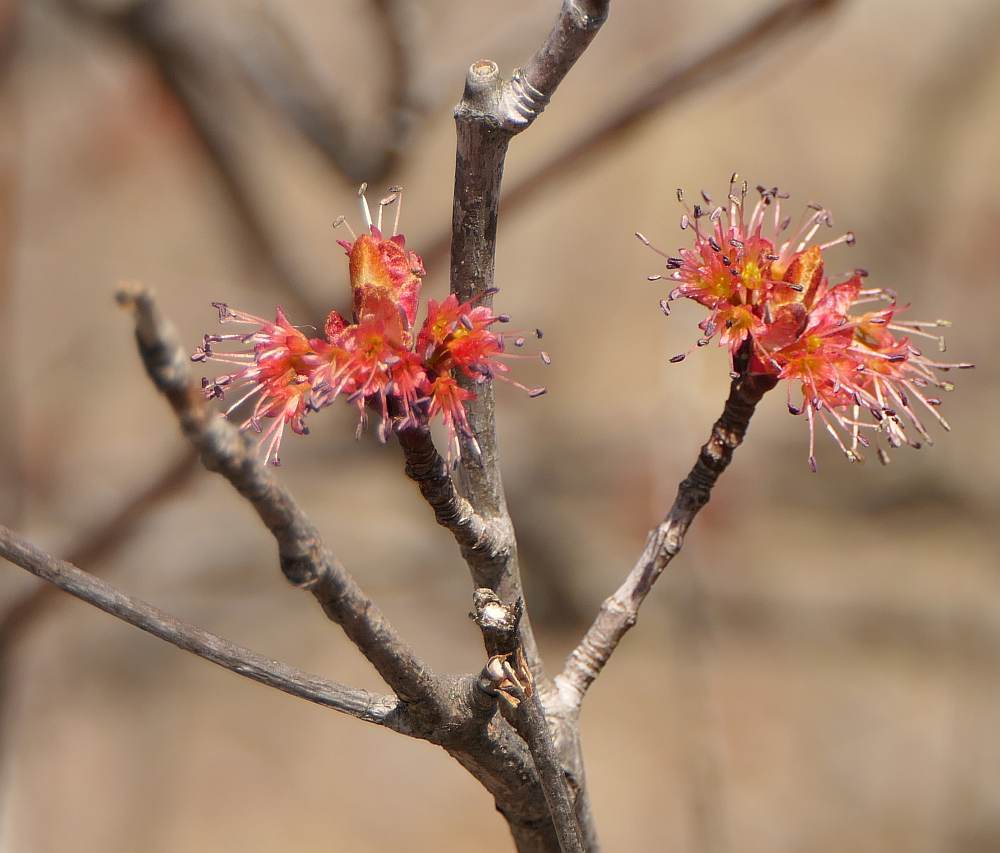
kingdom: Plantae
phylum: Tracheophyta
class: Magnoliopsida
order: Sapindales
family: Sapindaceae
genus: Acer
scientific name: Acer rubrum
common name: Red maple
